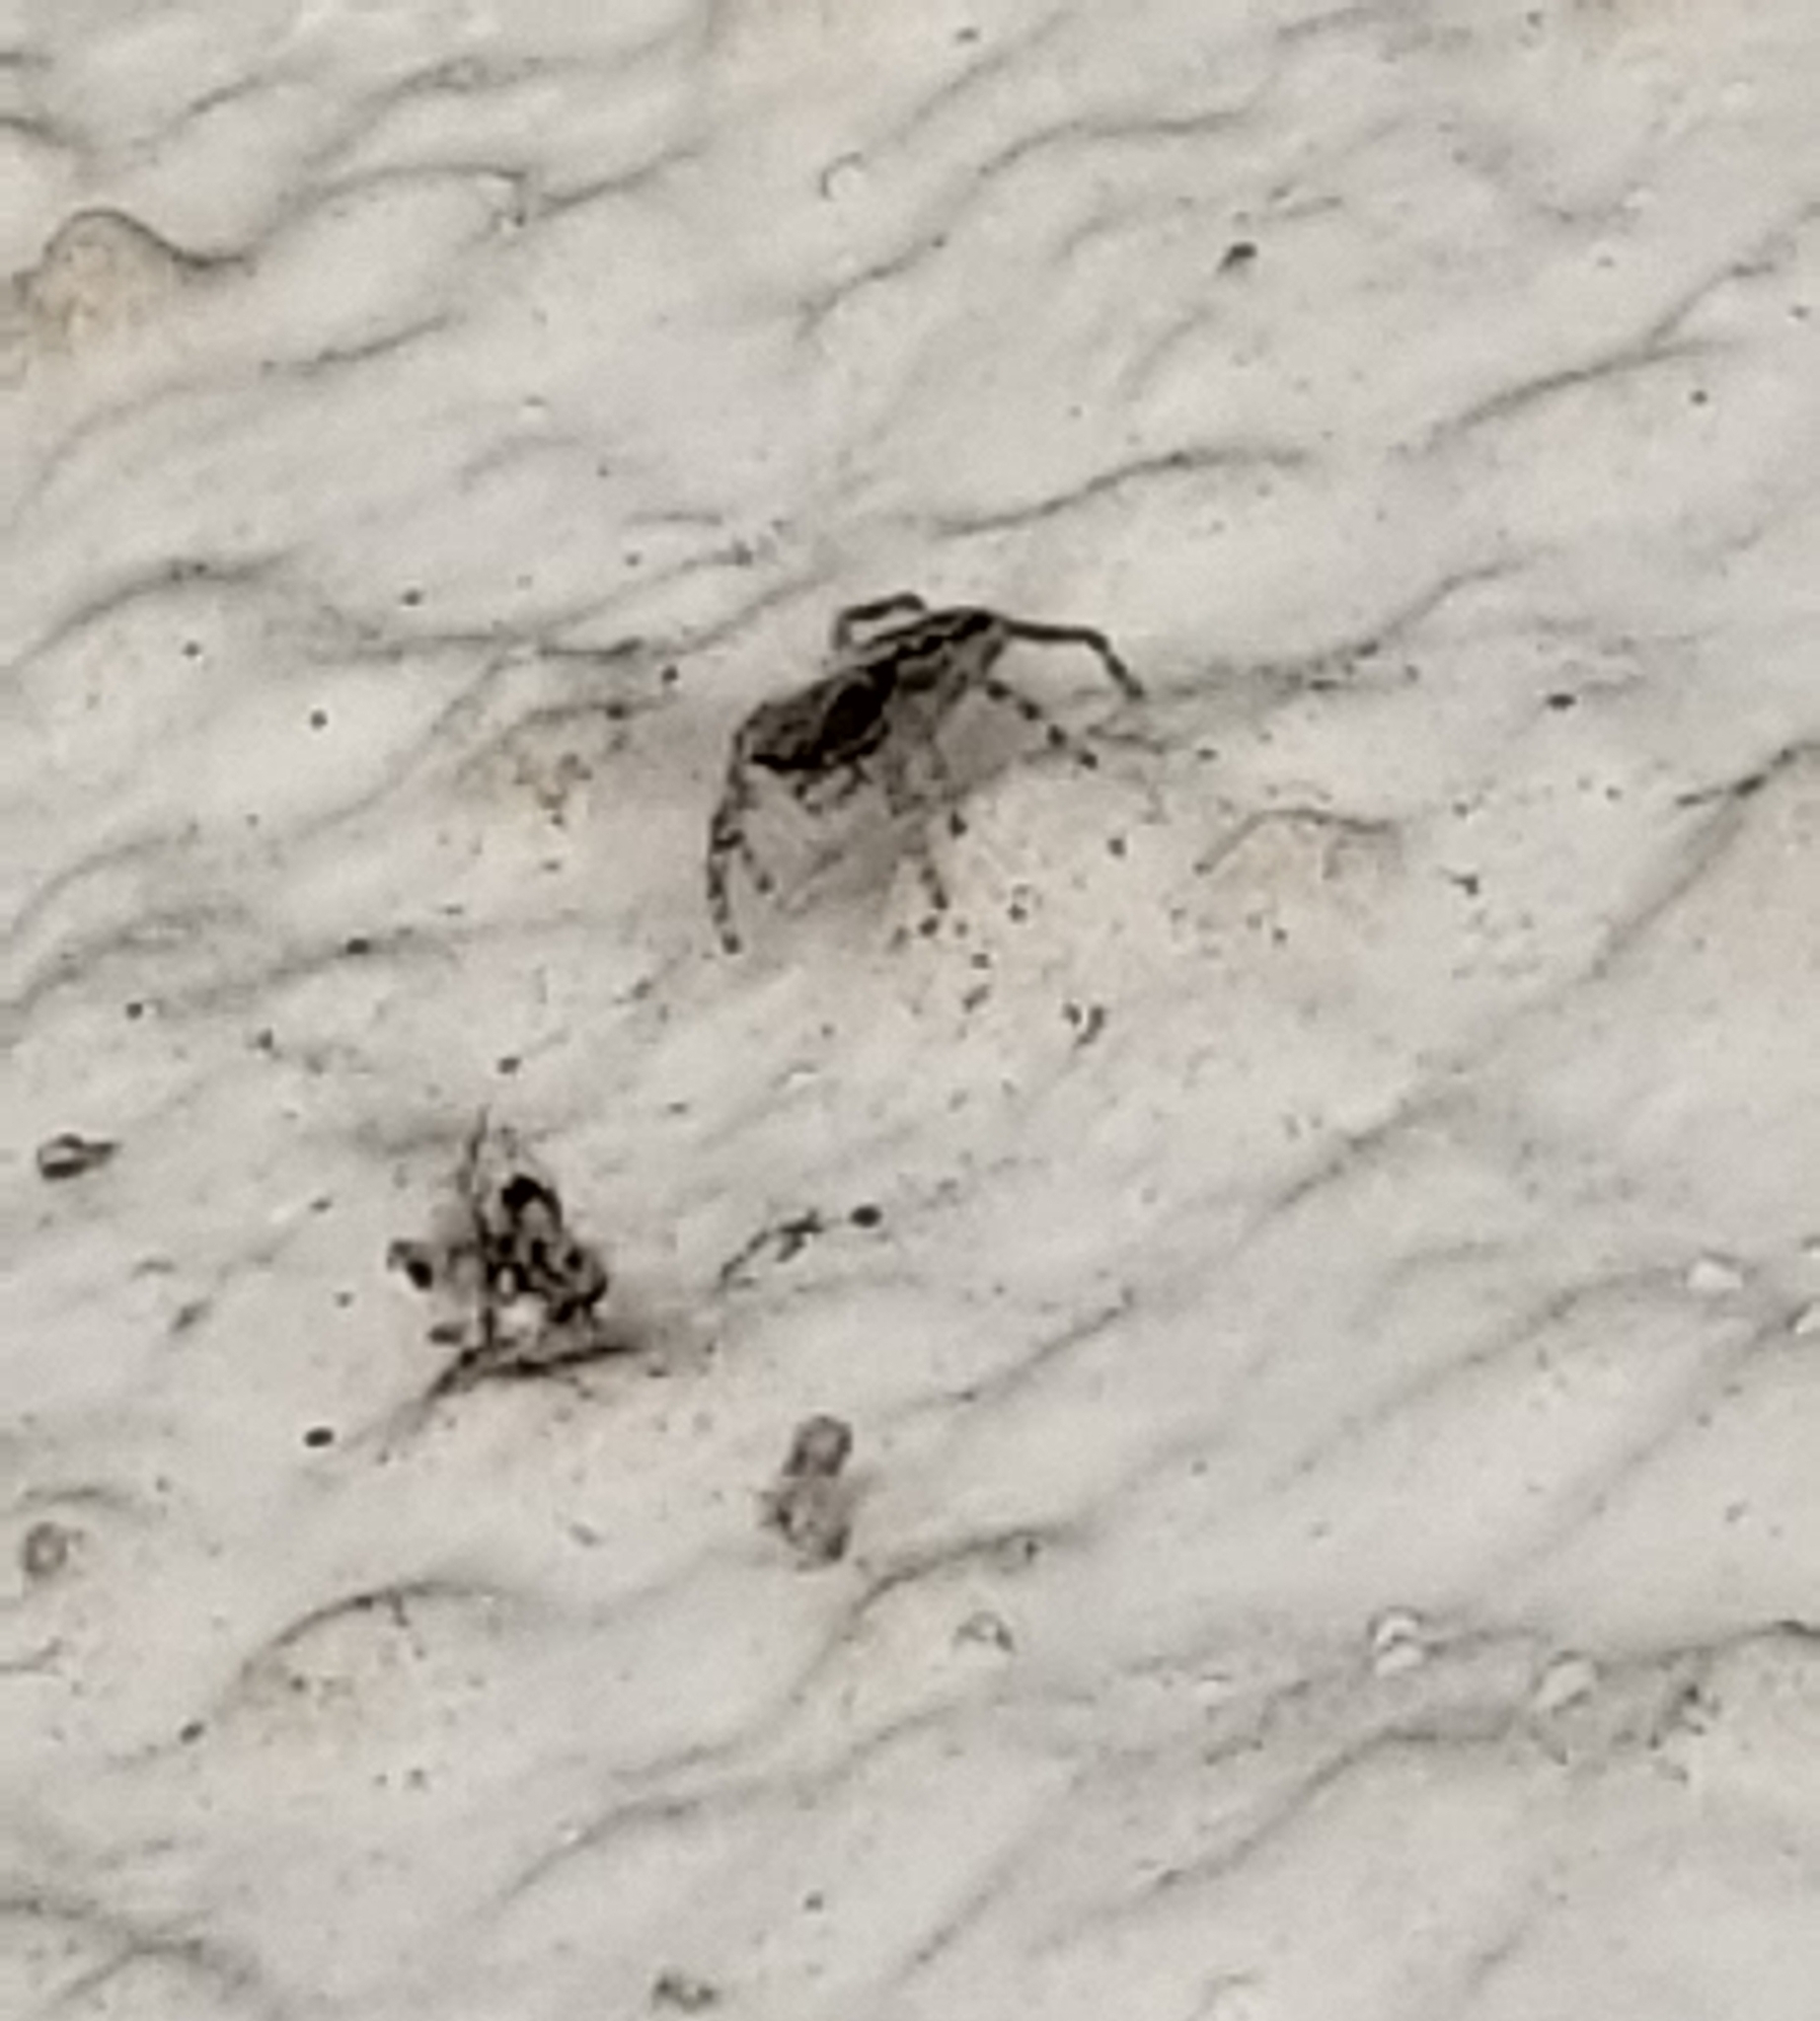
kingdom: Animalia
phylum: Arthropoda
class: Arachnida
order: Araneae
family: Salticidae
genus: Menemerus
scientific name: Menemerus bivittatus
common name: Gray wall jumper
